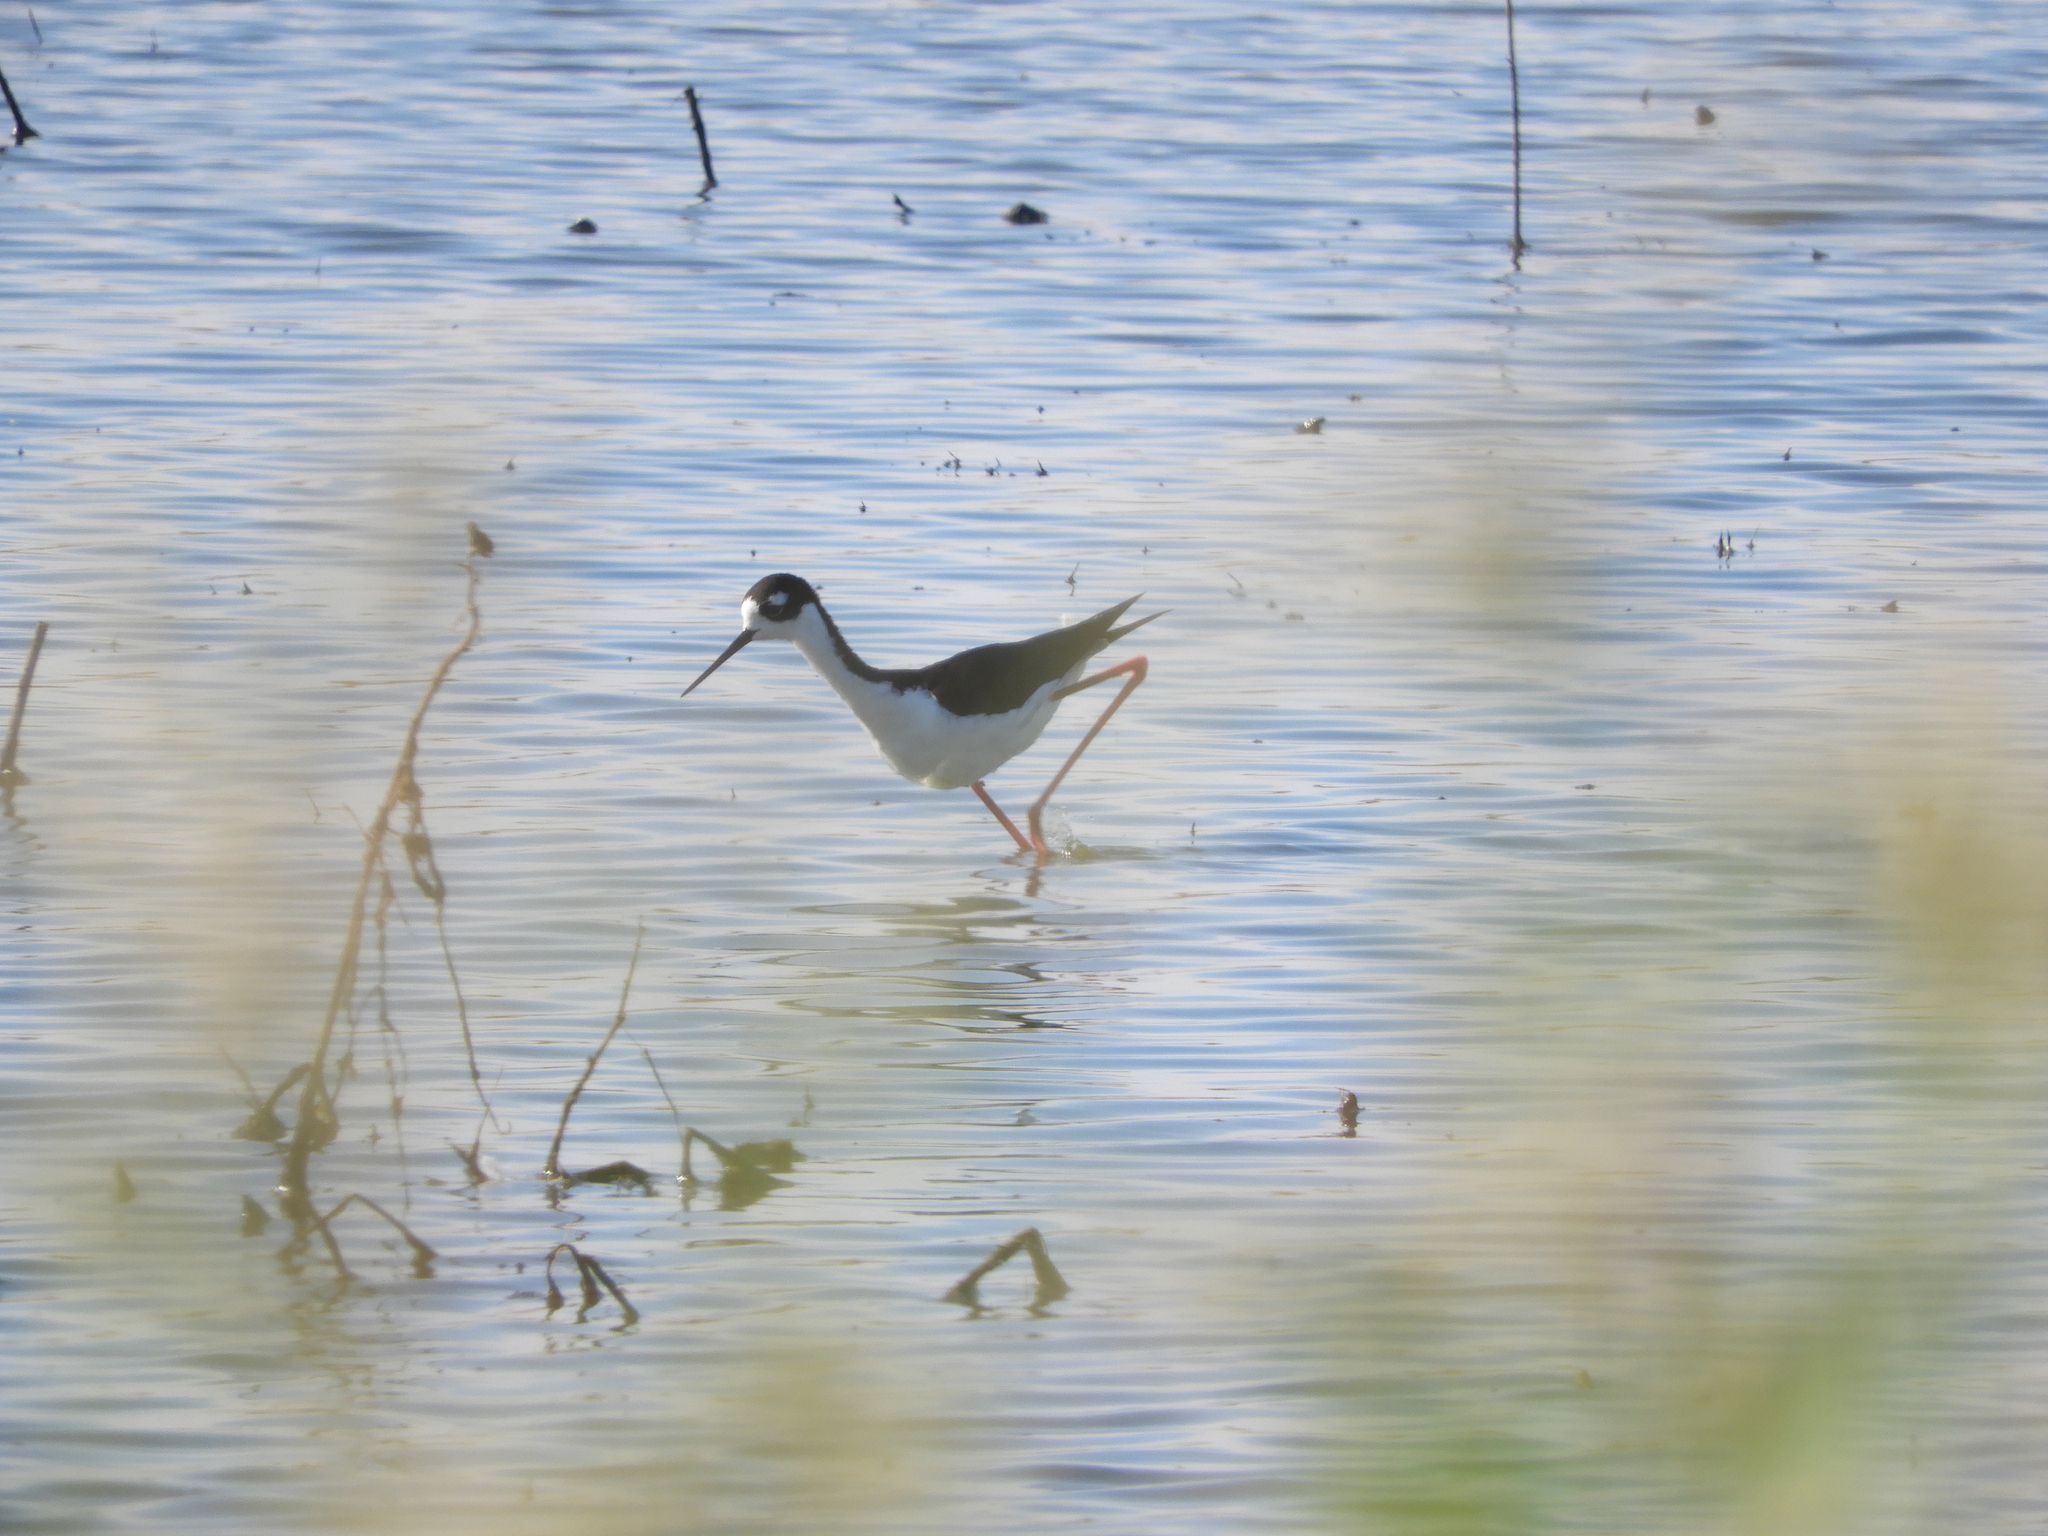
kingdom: Animalia
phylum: Chordata
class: Aves
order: Charadriiformes
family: Recurvirostridae
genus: Himantopus
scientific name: Himantopus mexicanus
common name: Black-necked stilt
